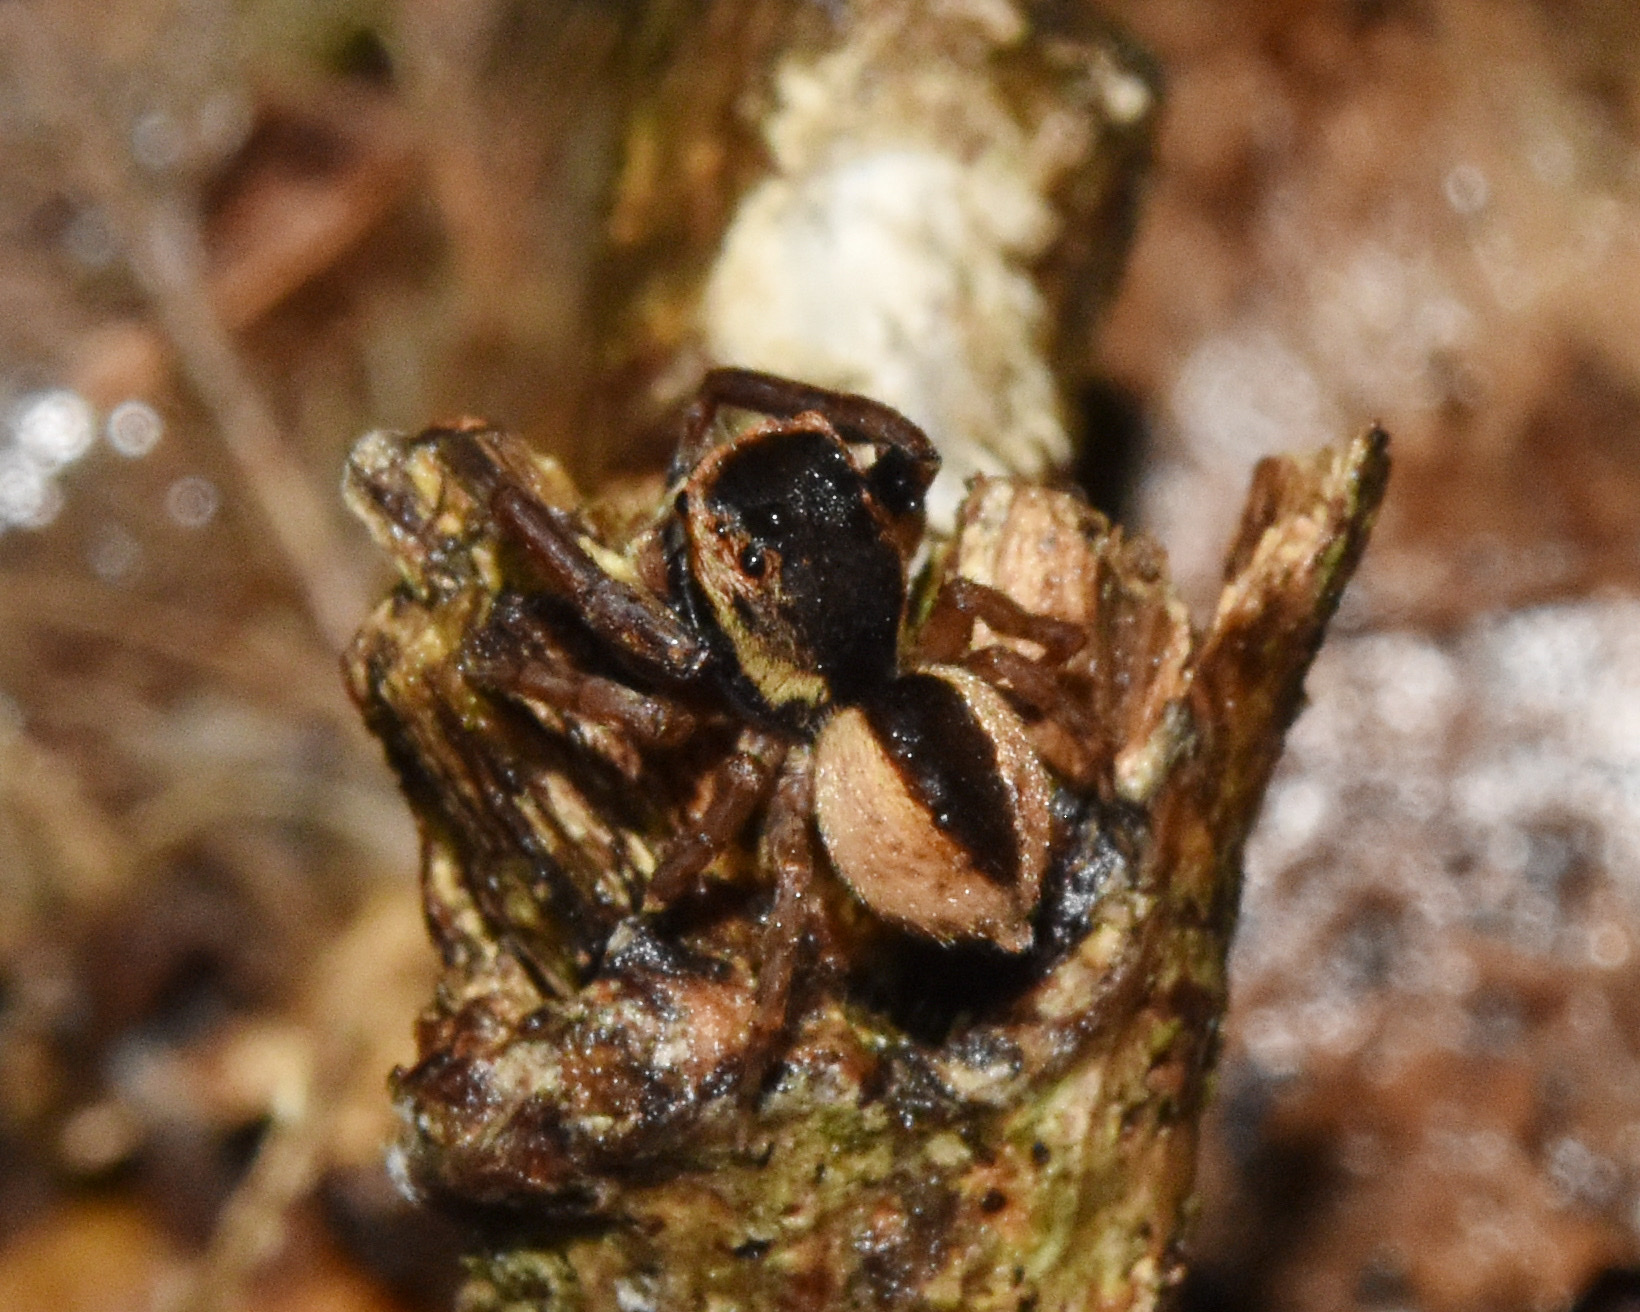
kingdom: Animalia
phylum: Arthropoda
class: Arachnida
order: Araneae
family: Salticidae
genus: Thyenula
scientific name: Thyenula leighi
